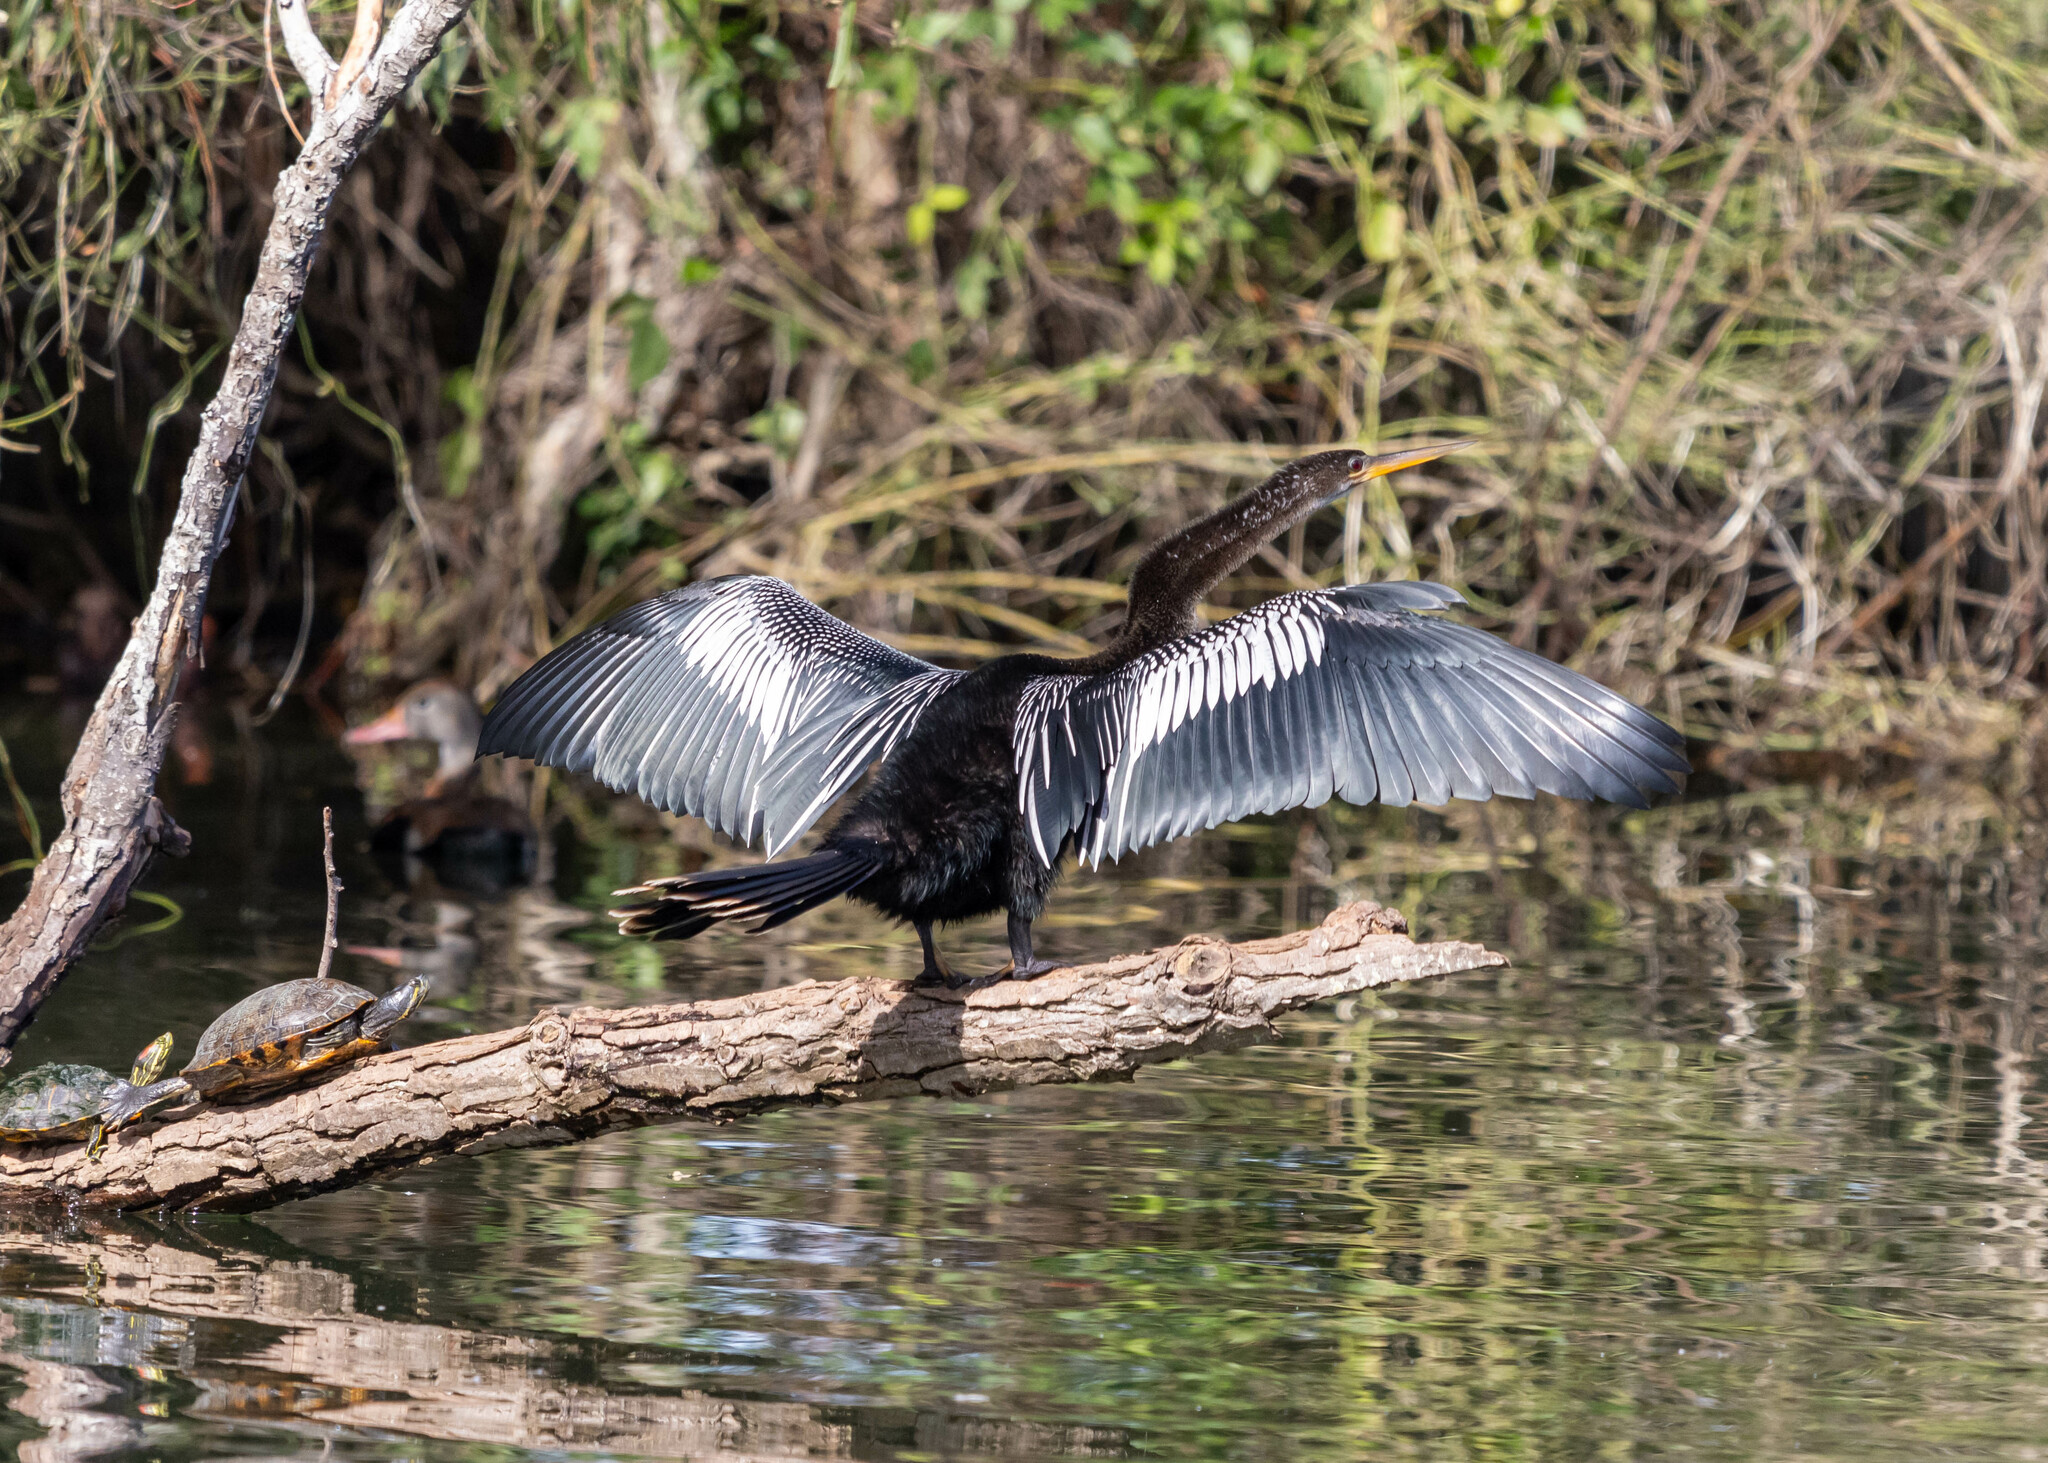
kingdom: Animalia
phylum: Chordata
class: Aves
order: Suliformes
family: Anhingidae
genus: Anhinga
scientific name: Anhinga anhinga
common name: Anhinga
